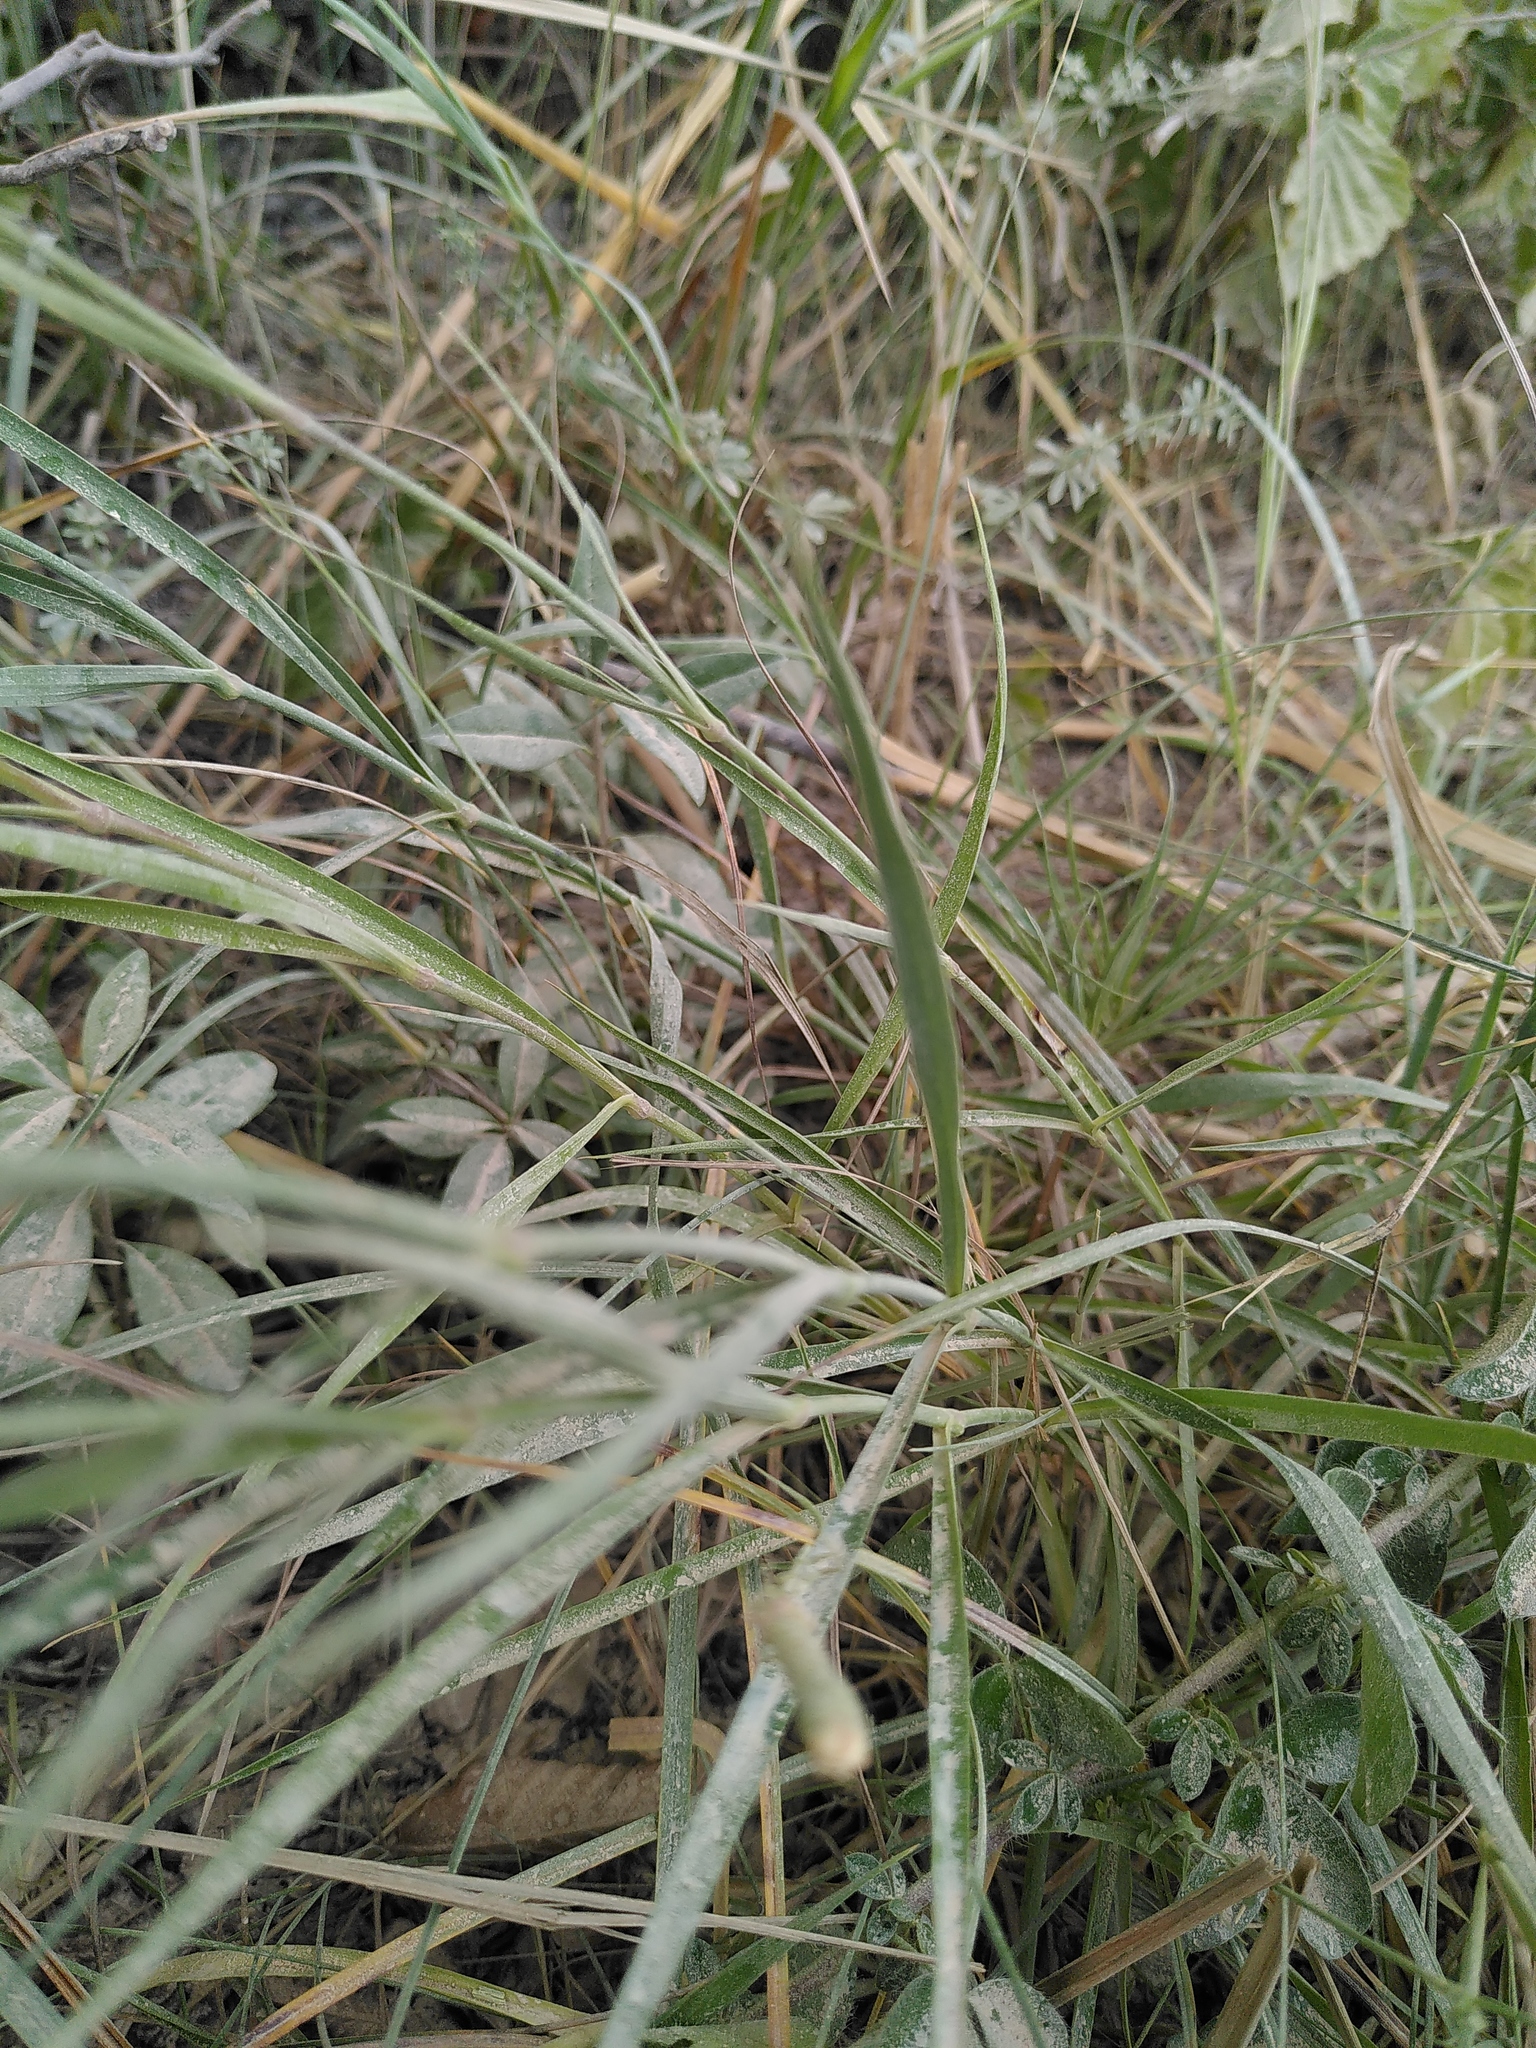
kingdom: Plantae
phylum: Tracheophyta
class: Magnoliopsida
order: Caryophyllales
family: Caryophyllaceae
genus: Dianthus
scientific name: Dianthus hyssopifolius
